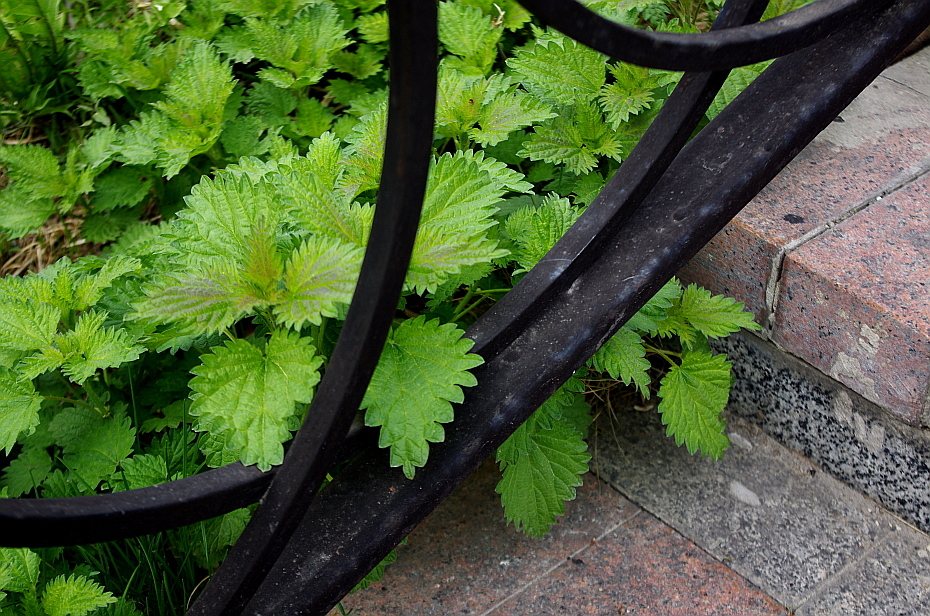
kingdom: Plantae
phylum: Tracheophyta
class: Magnoliopsida
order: Rosales
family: Urticaceae
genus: Urtica
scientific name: Urtica dioica
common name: Common nettle
